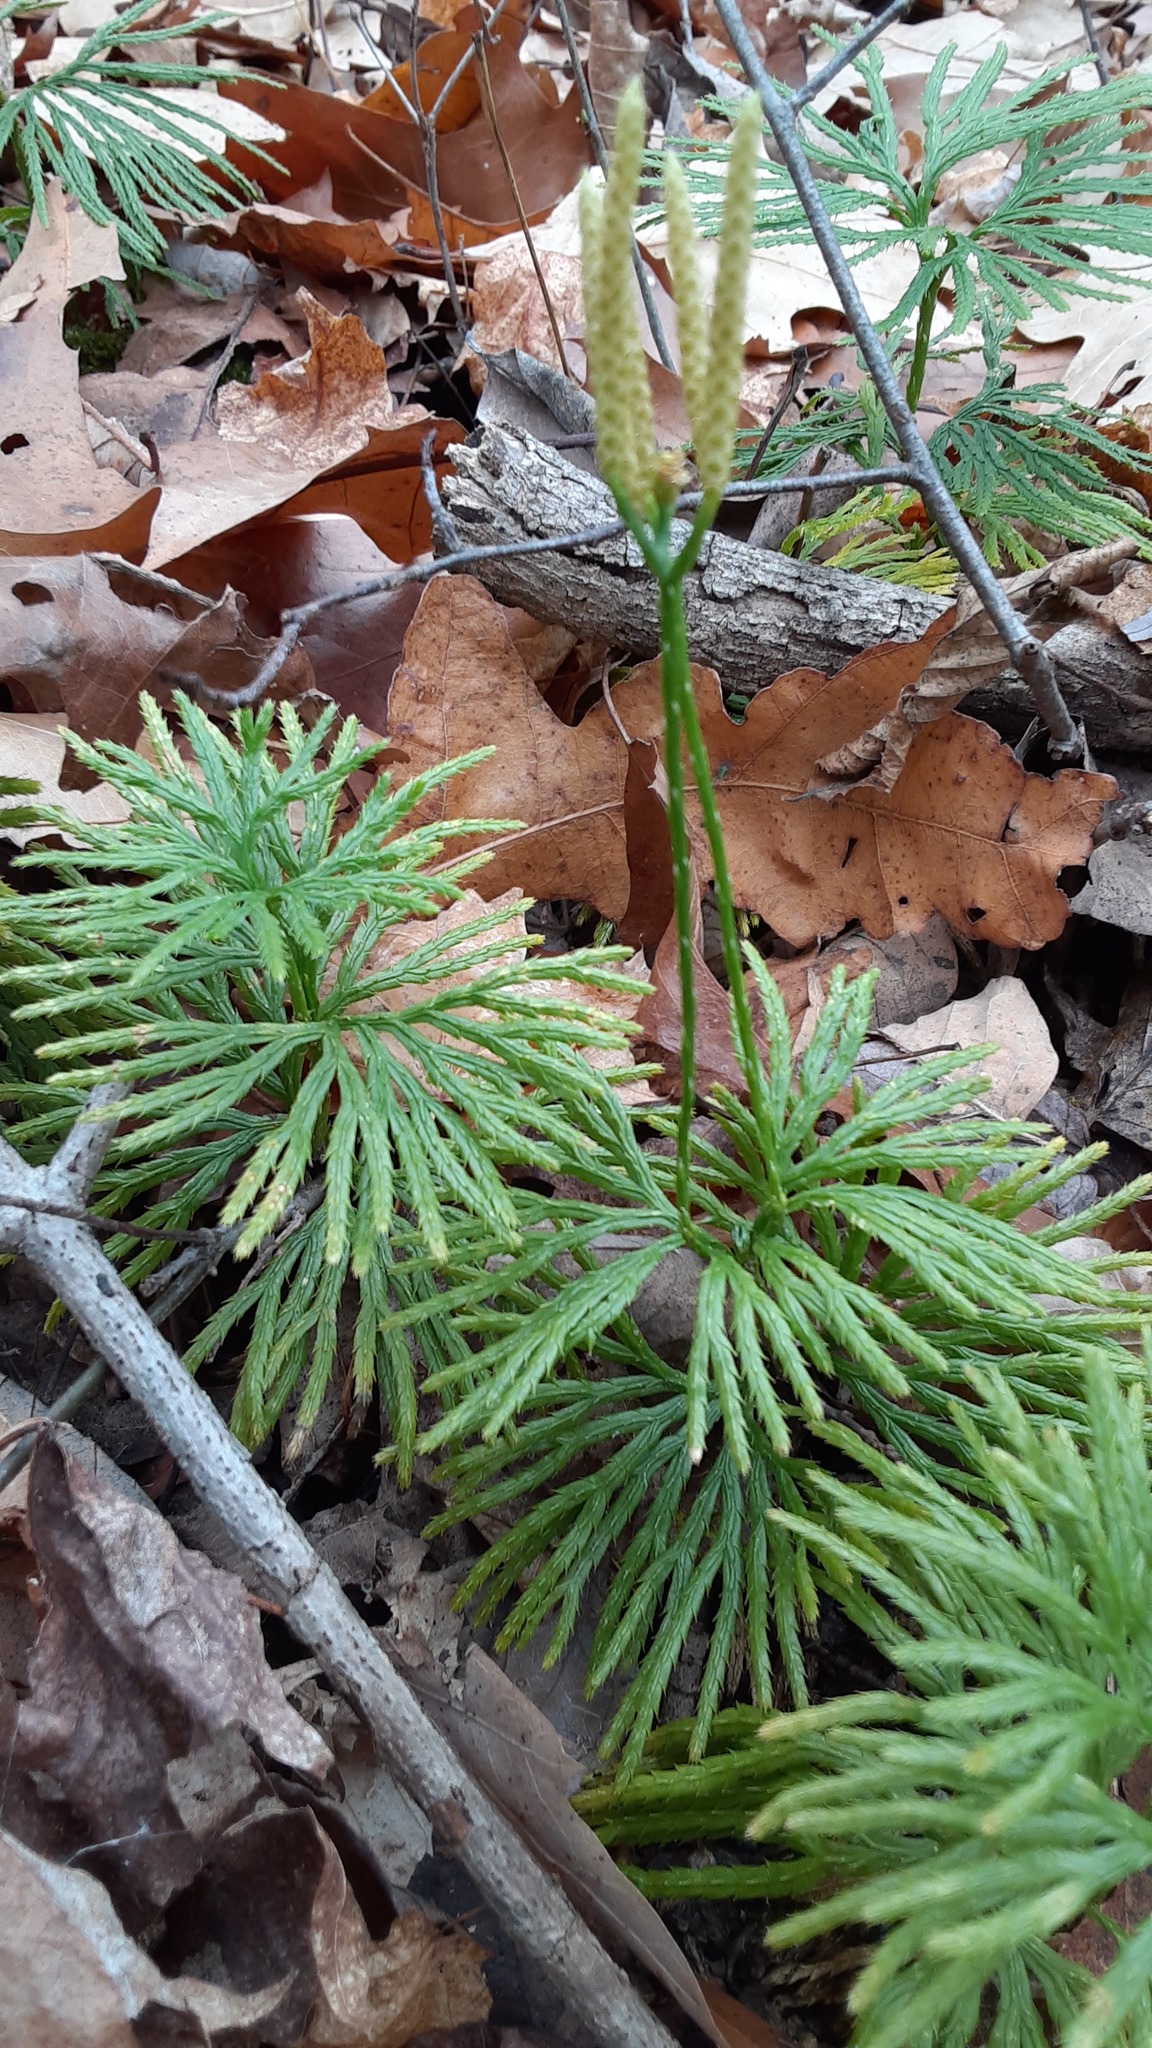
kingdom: Plantae
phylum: Tracheophyta
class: Lycopodiopsida
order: Lycopodiales
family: Lycopodiaceae
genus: Diphasiastrum
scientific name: Diphasiastrum digitatum
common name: Southern running-pine
